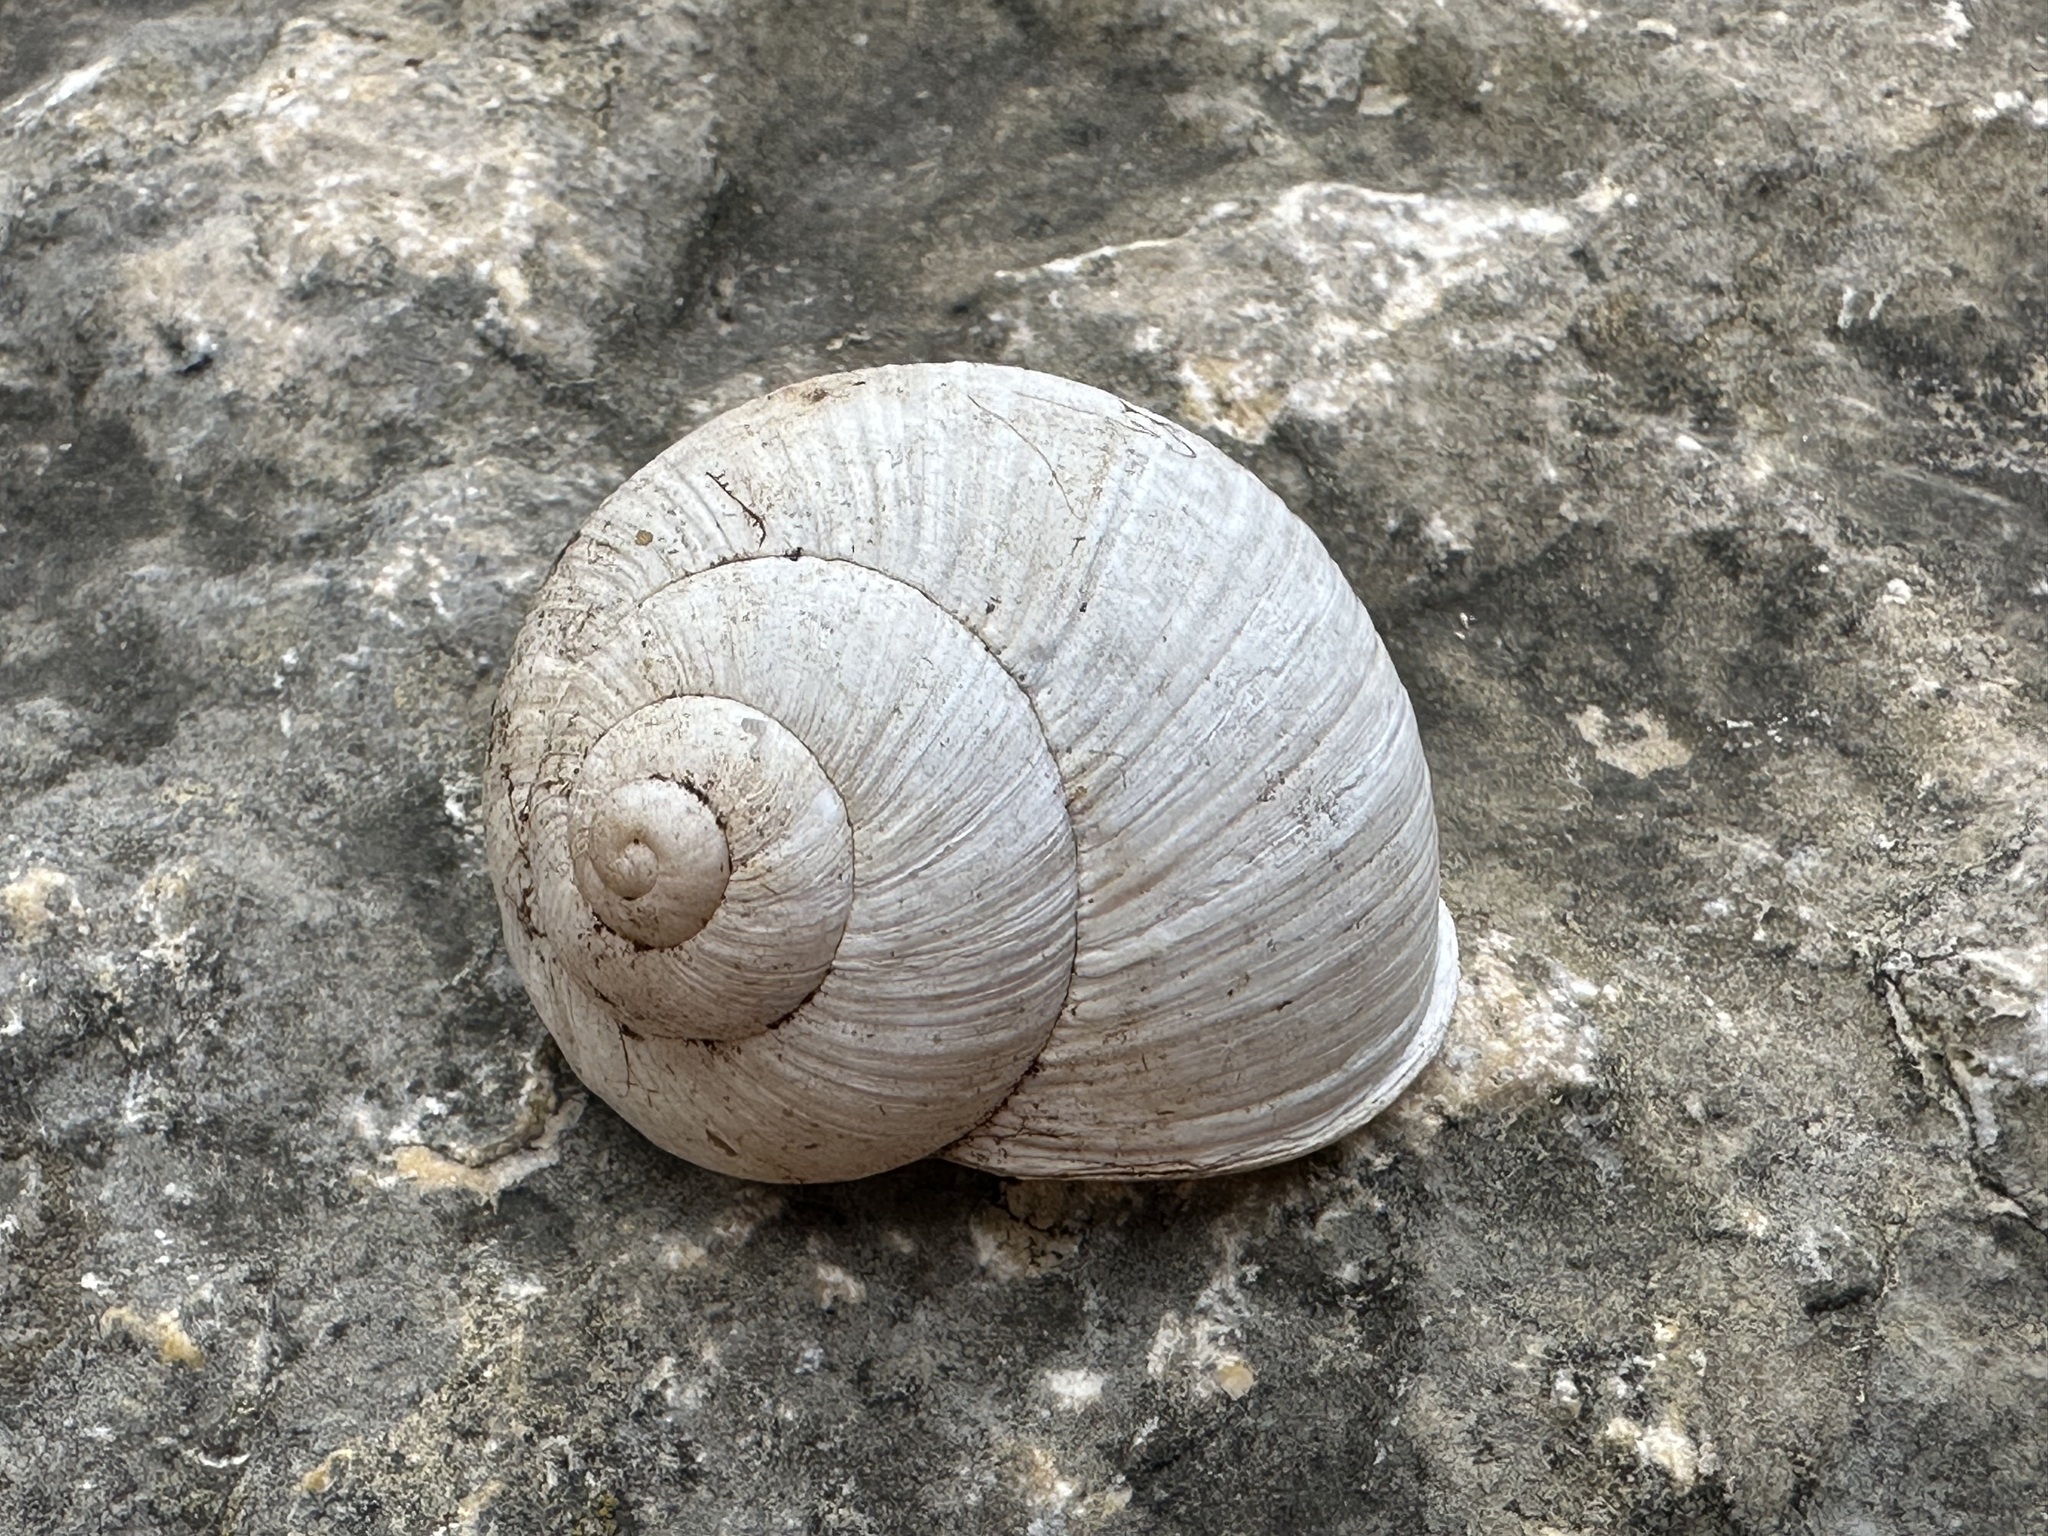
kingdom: Animalia
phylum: Mollusca
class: Gastropoda
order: Stylommatophora
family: Helicidae
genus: Helix
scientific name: Helix pomatia
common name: Roman snail
